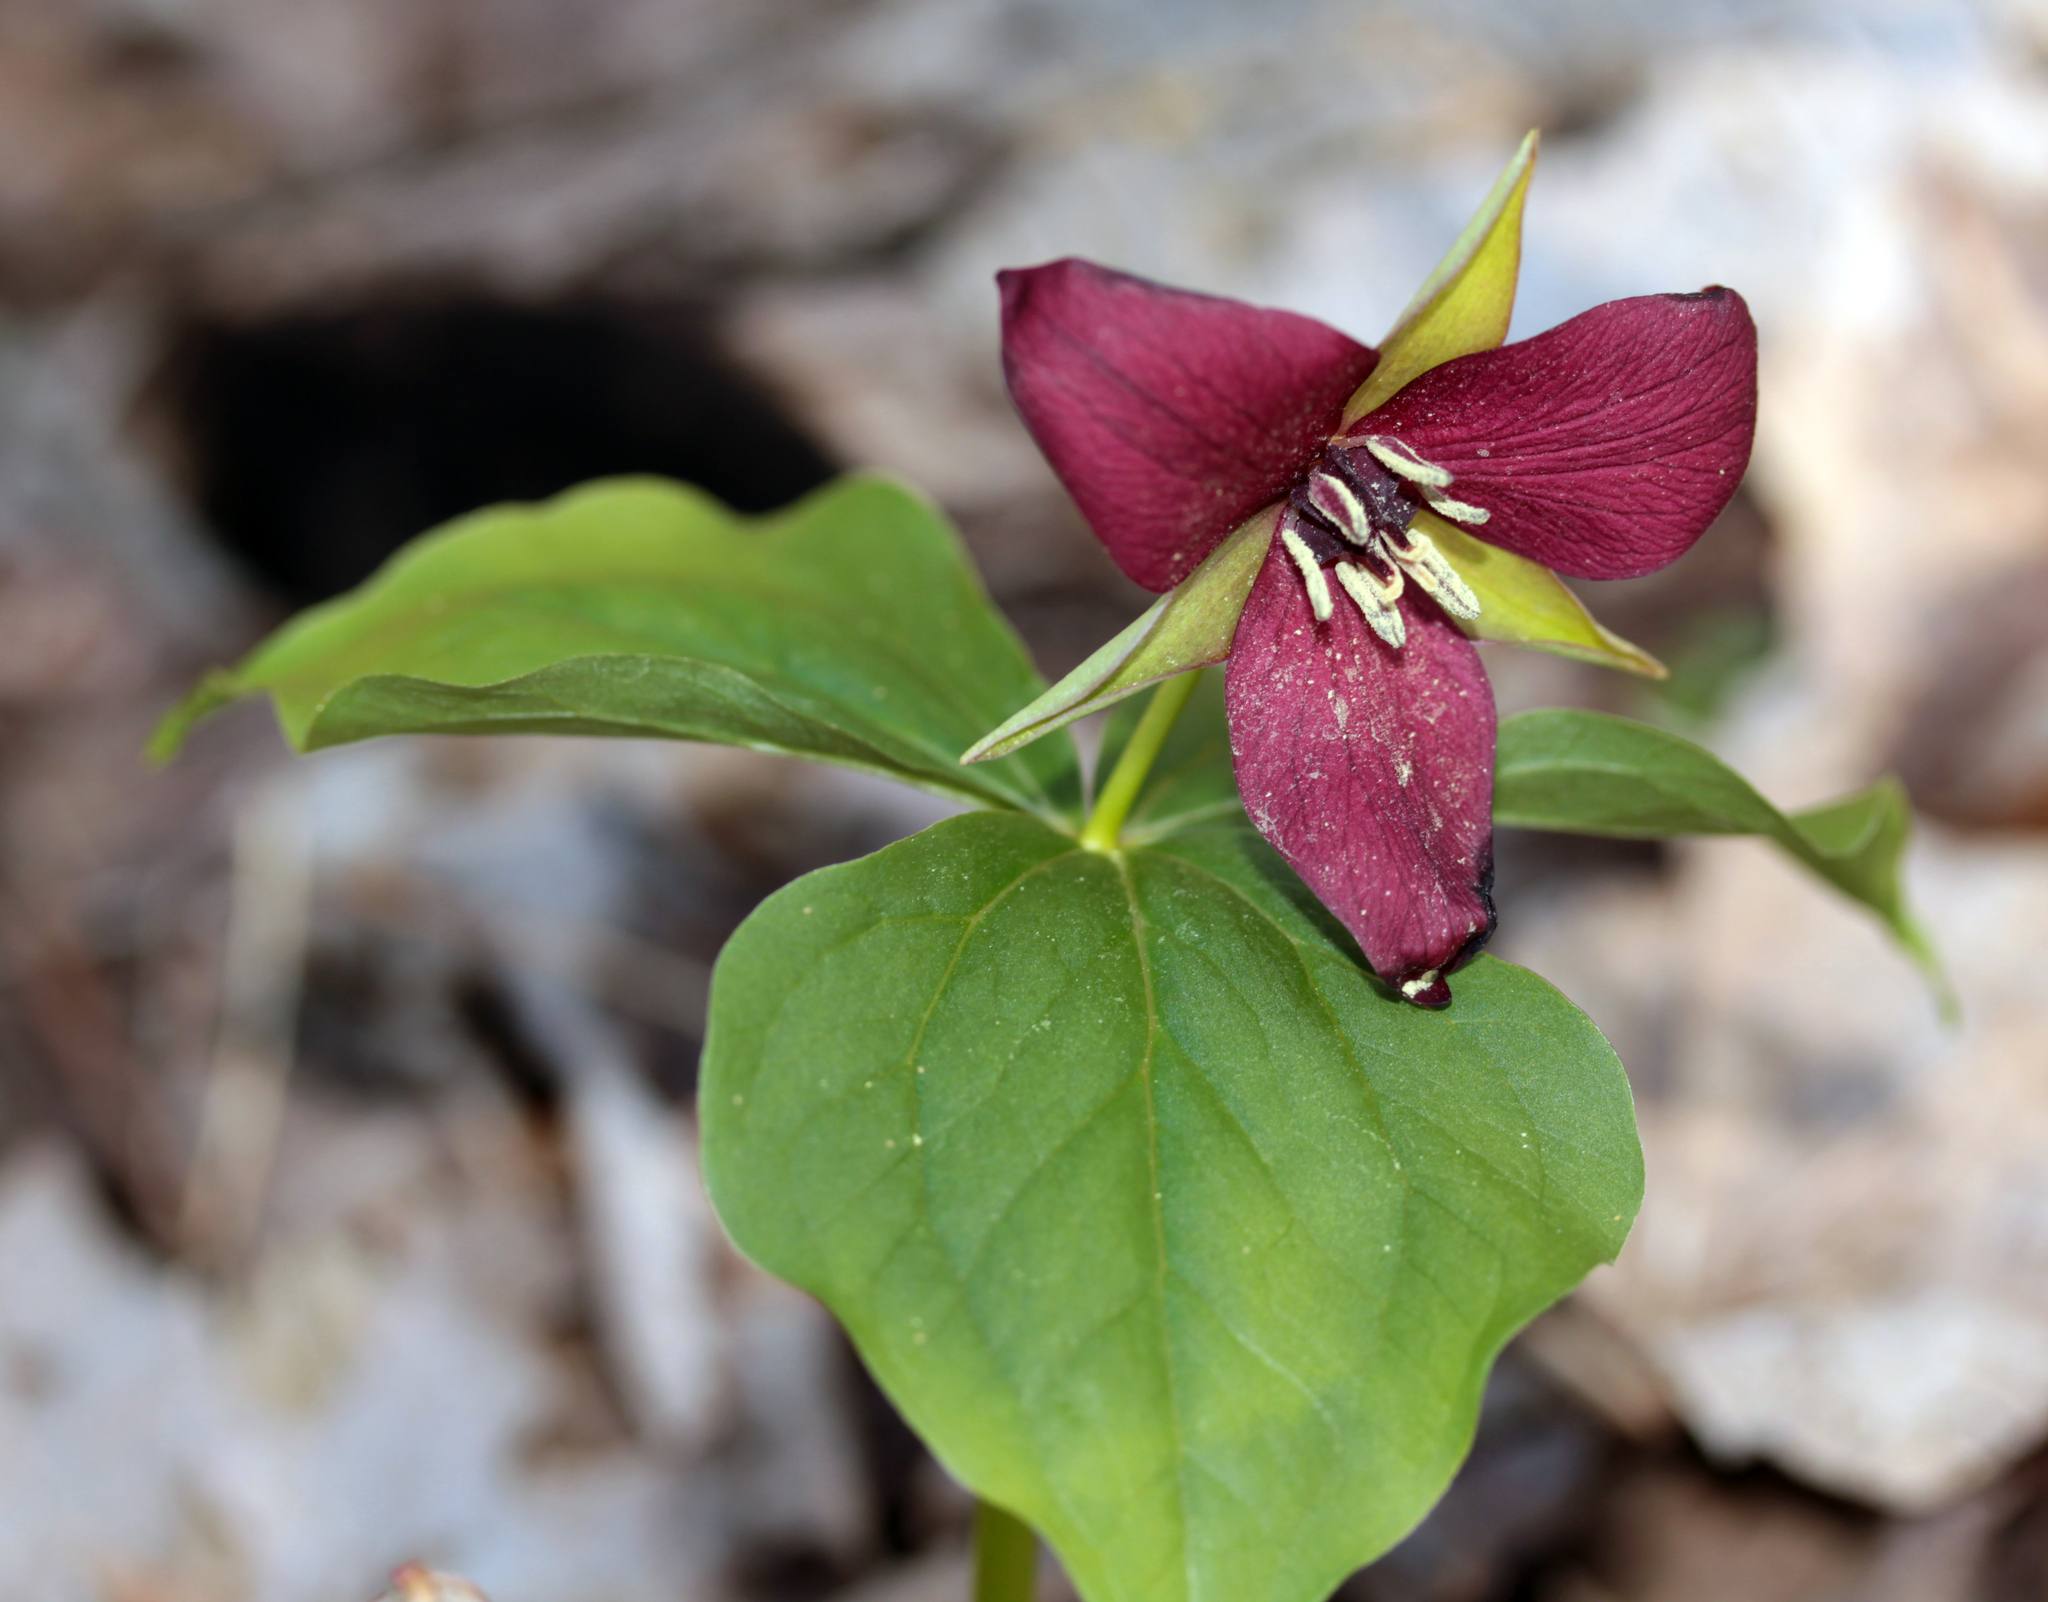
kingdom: Plantae
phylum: Tracheophyta
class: Liliopsida
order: Liliales
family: Melanthiaceae
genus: Trillium
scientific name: Trillium erectum
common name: Purple trillium
